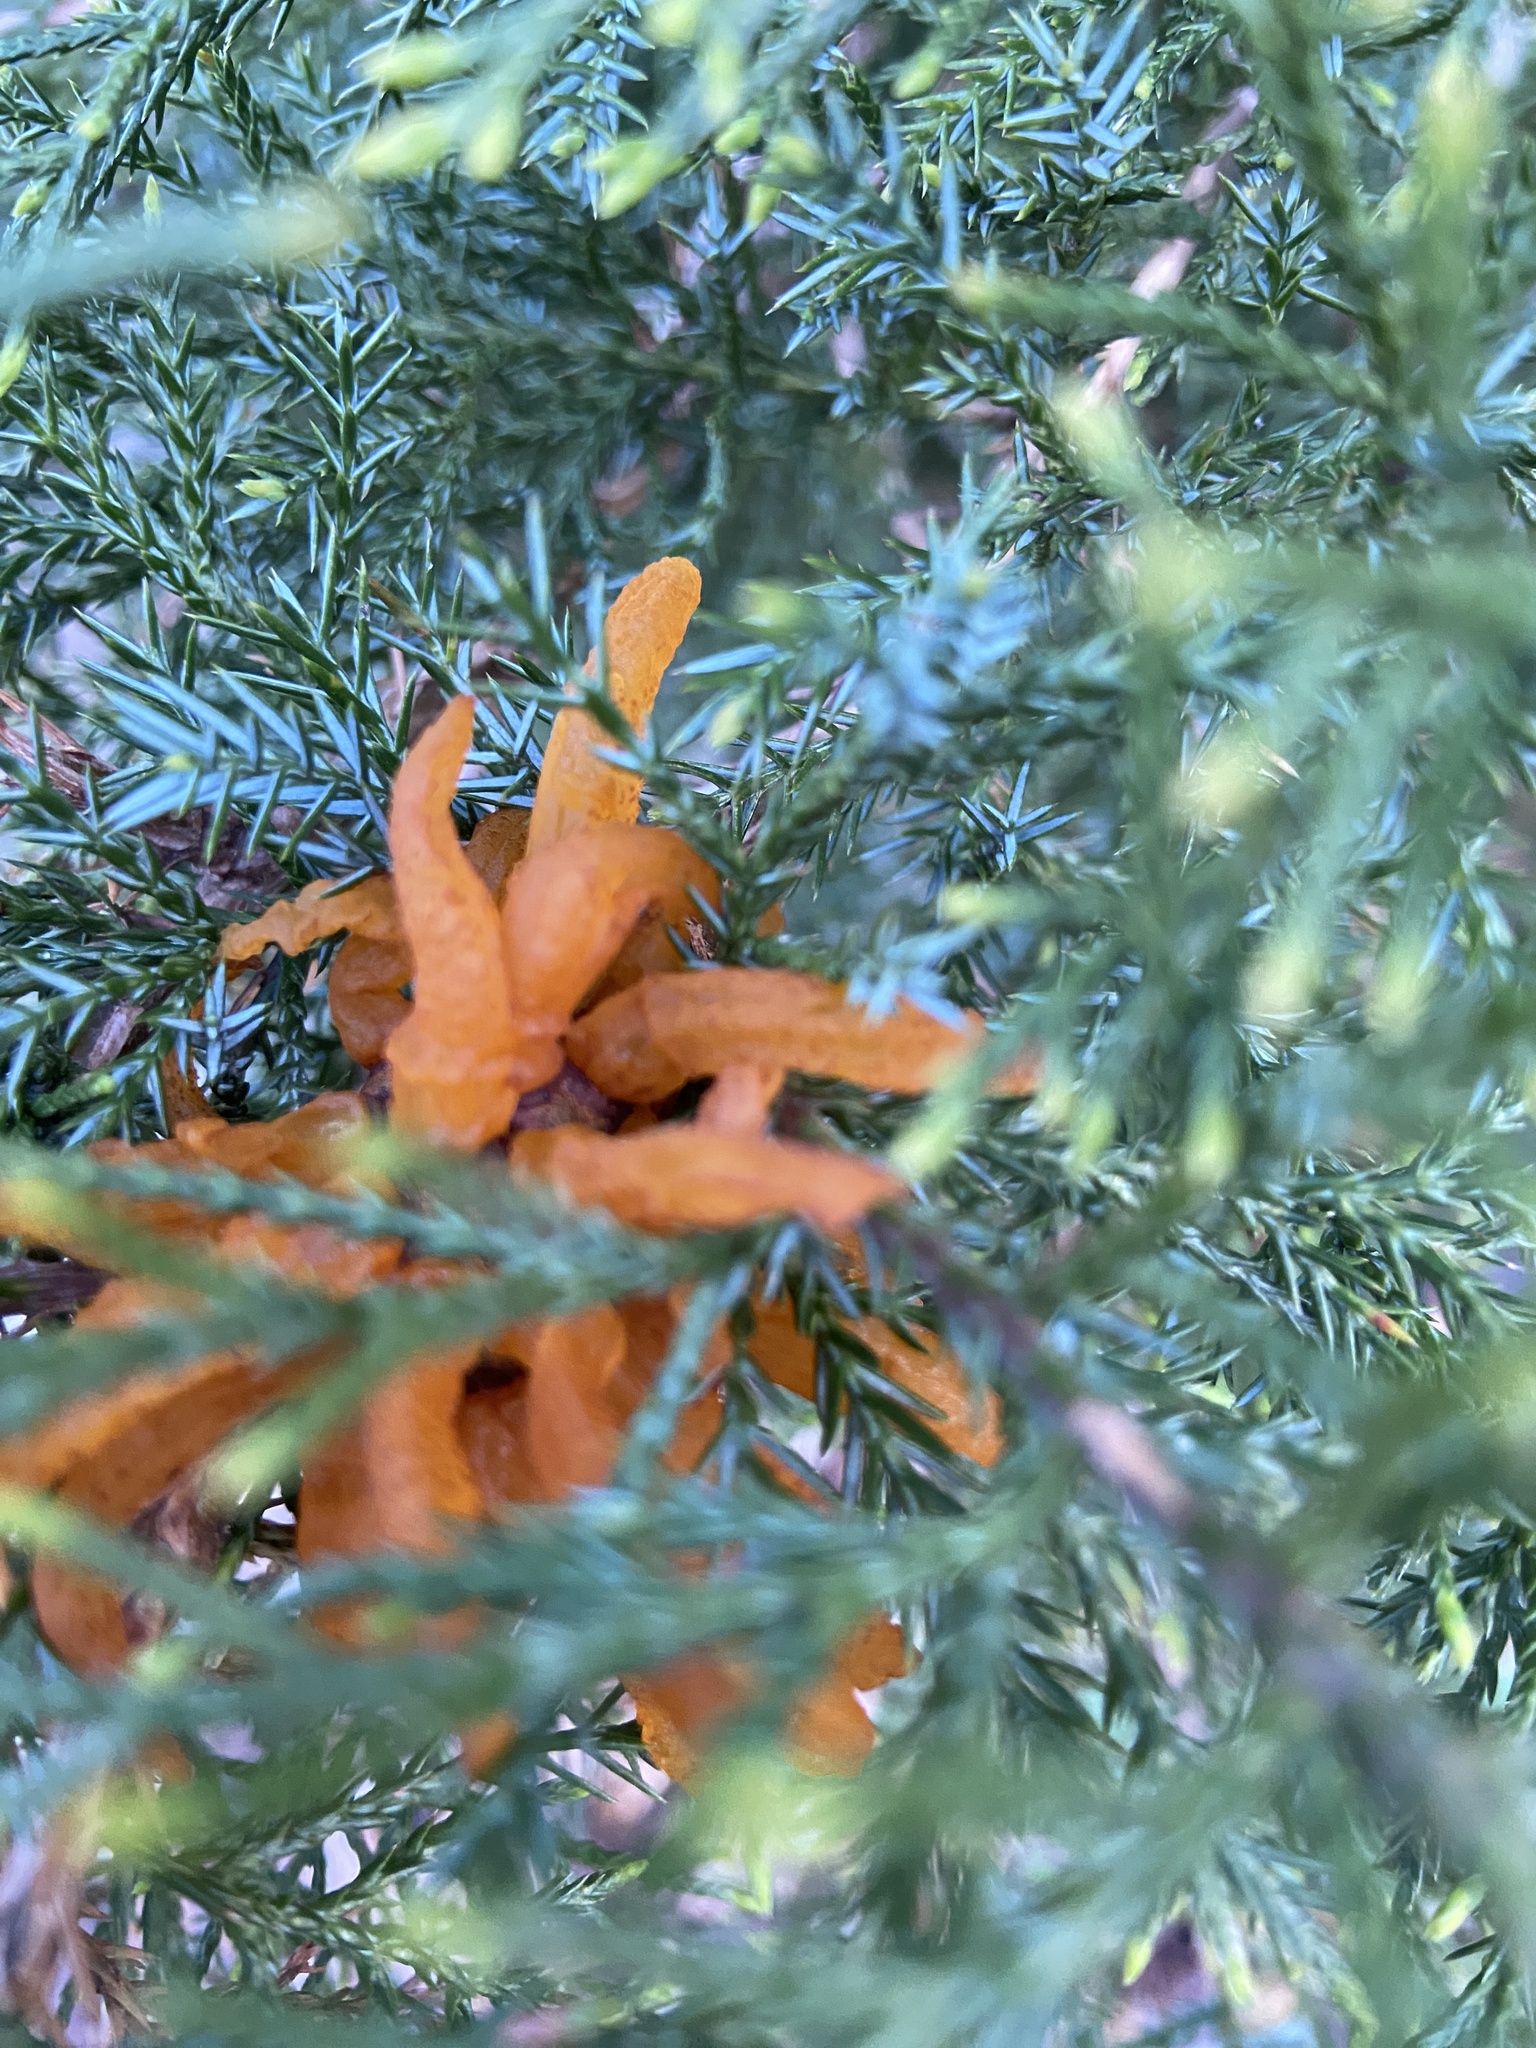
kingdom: Fungi
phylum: Basidiomycota
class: Pucciniomycetes
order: Pucciniales
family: Gymnosporangiaceae
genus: Gymnosporangium
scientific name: Gymnosporangium juniperi-virginianae
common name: Juniper-apple rust
